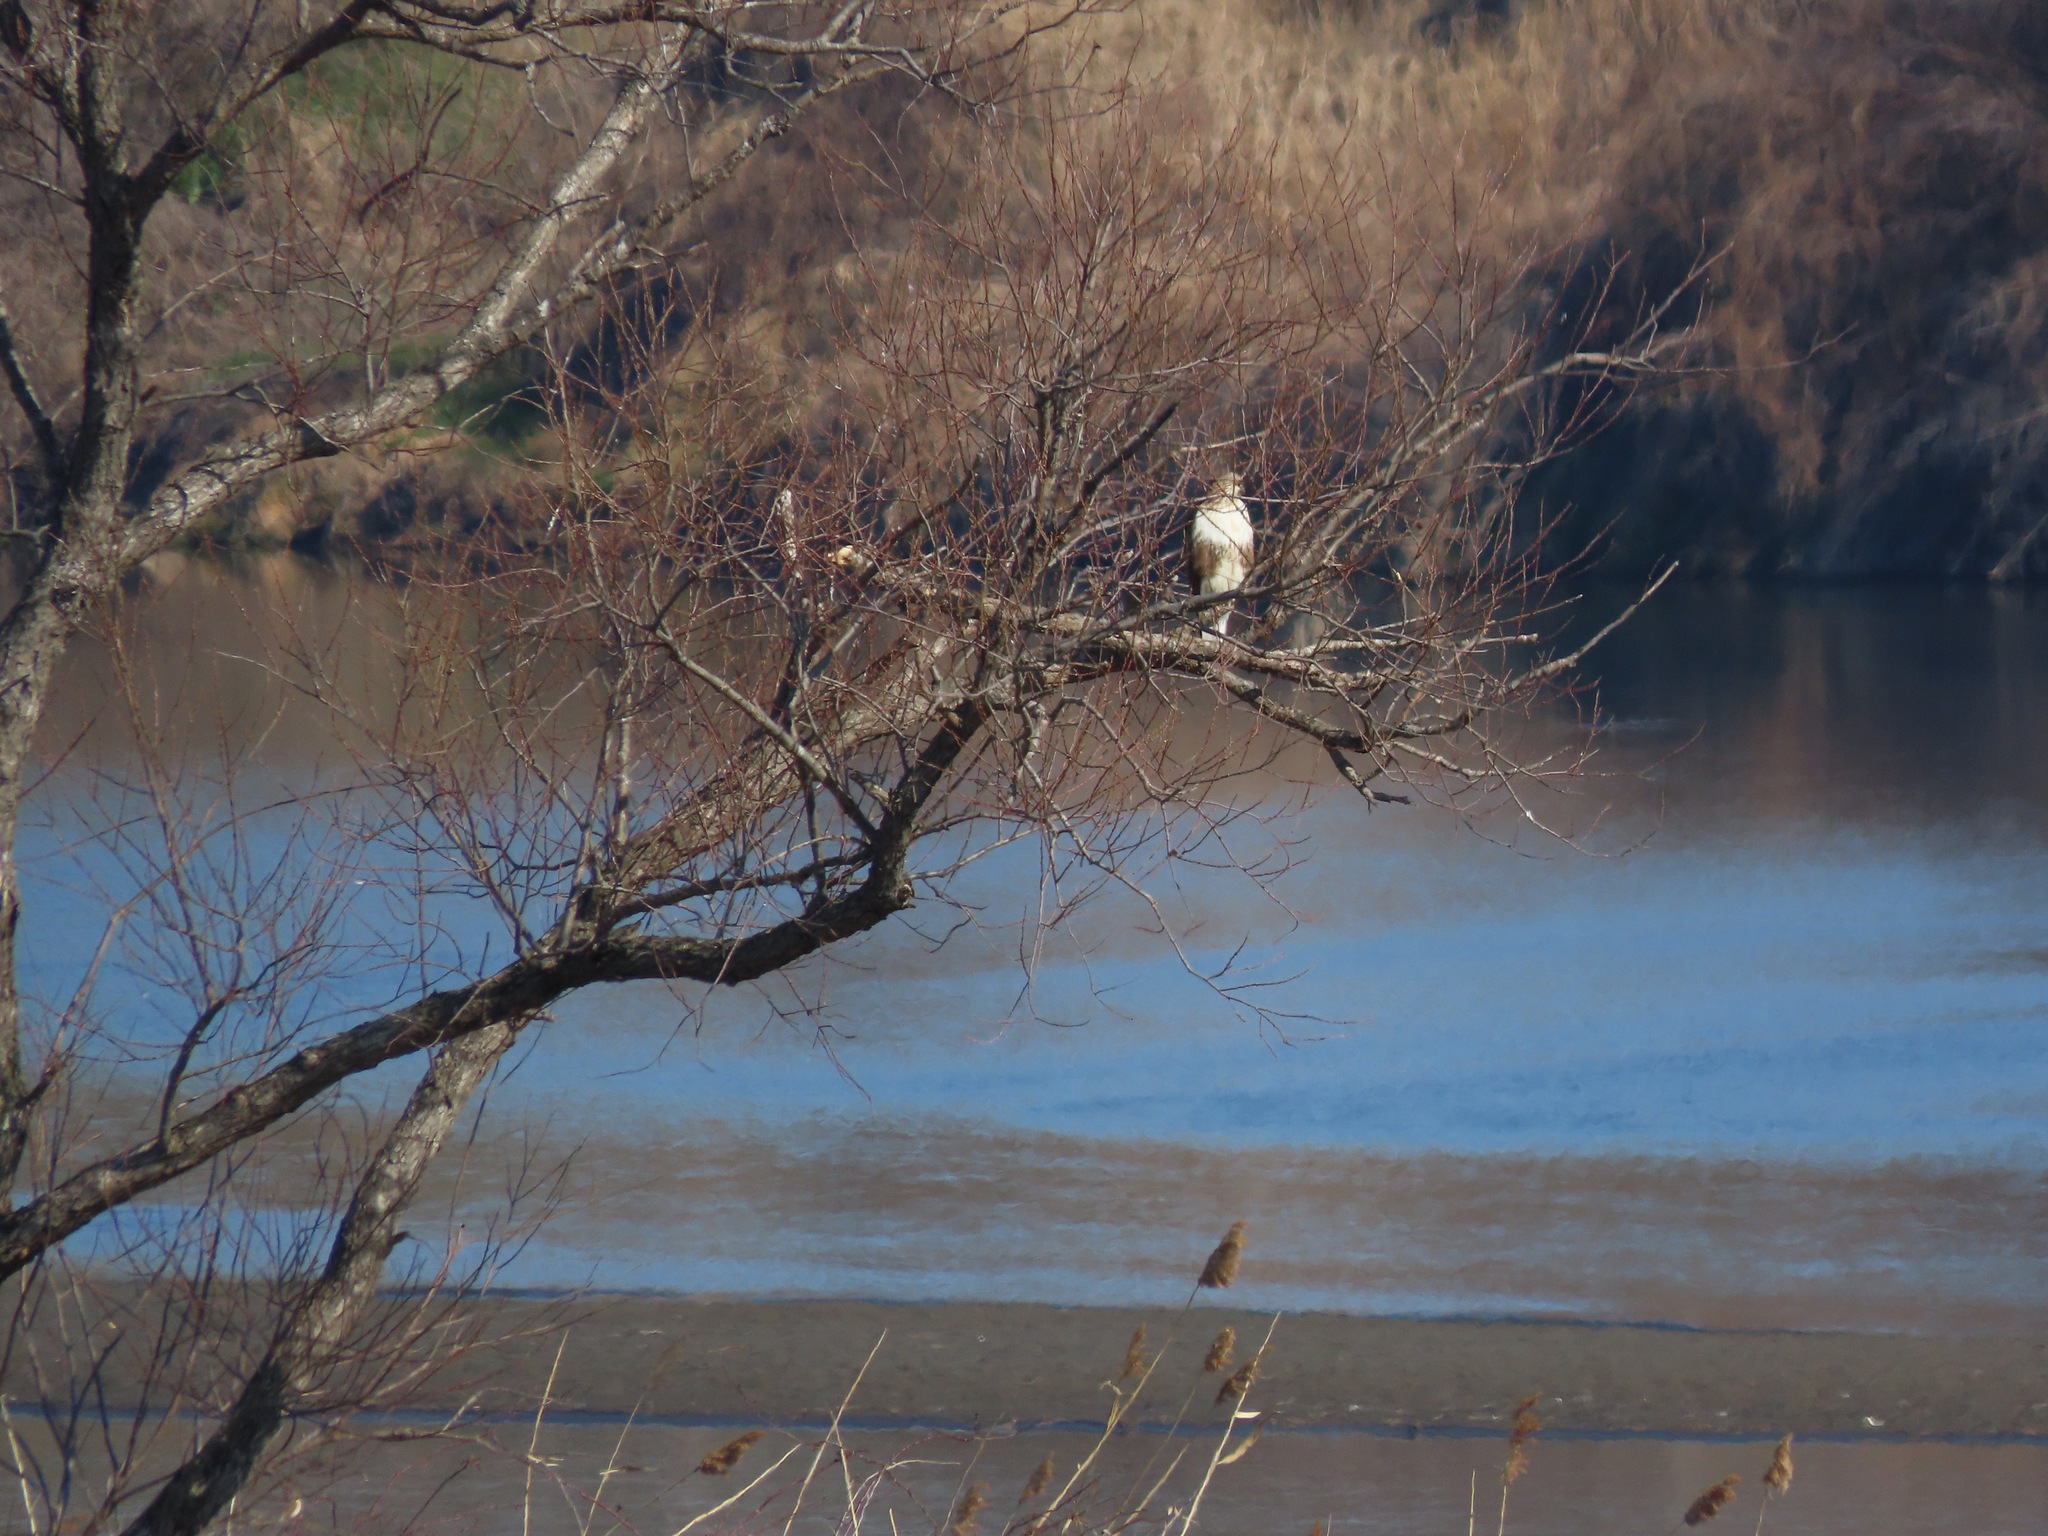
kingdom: Animalia
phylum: Chordata
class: Aves
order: Accipitriformes
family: Accipitridae
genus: Buteo
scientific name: Buteo japonicus
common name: Eastern buzzard
